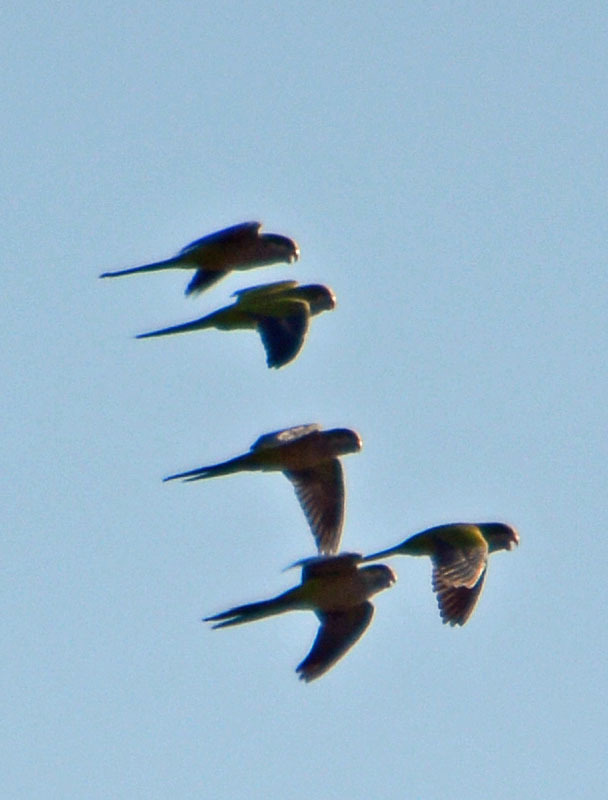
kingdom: Animalia
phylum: Chordata
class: Aves
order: Psittaciformes
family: Psittacidae
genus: Myiopsitta
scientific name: Myiopsitta monachus
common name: Monk parakeet
